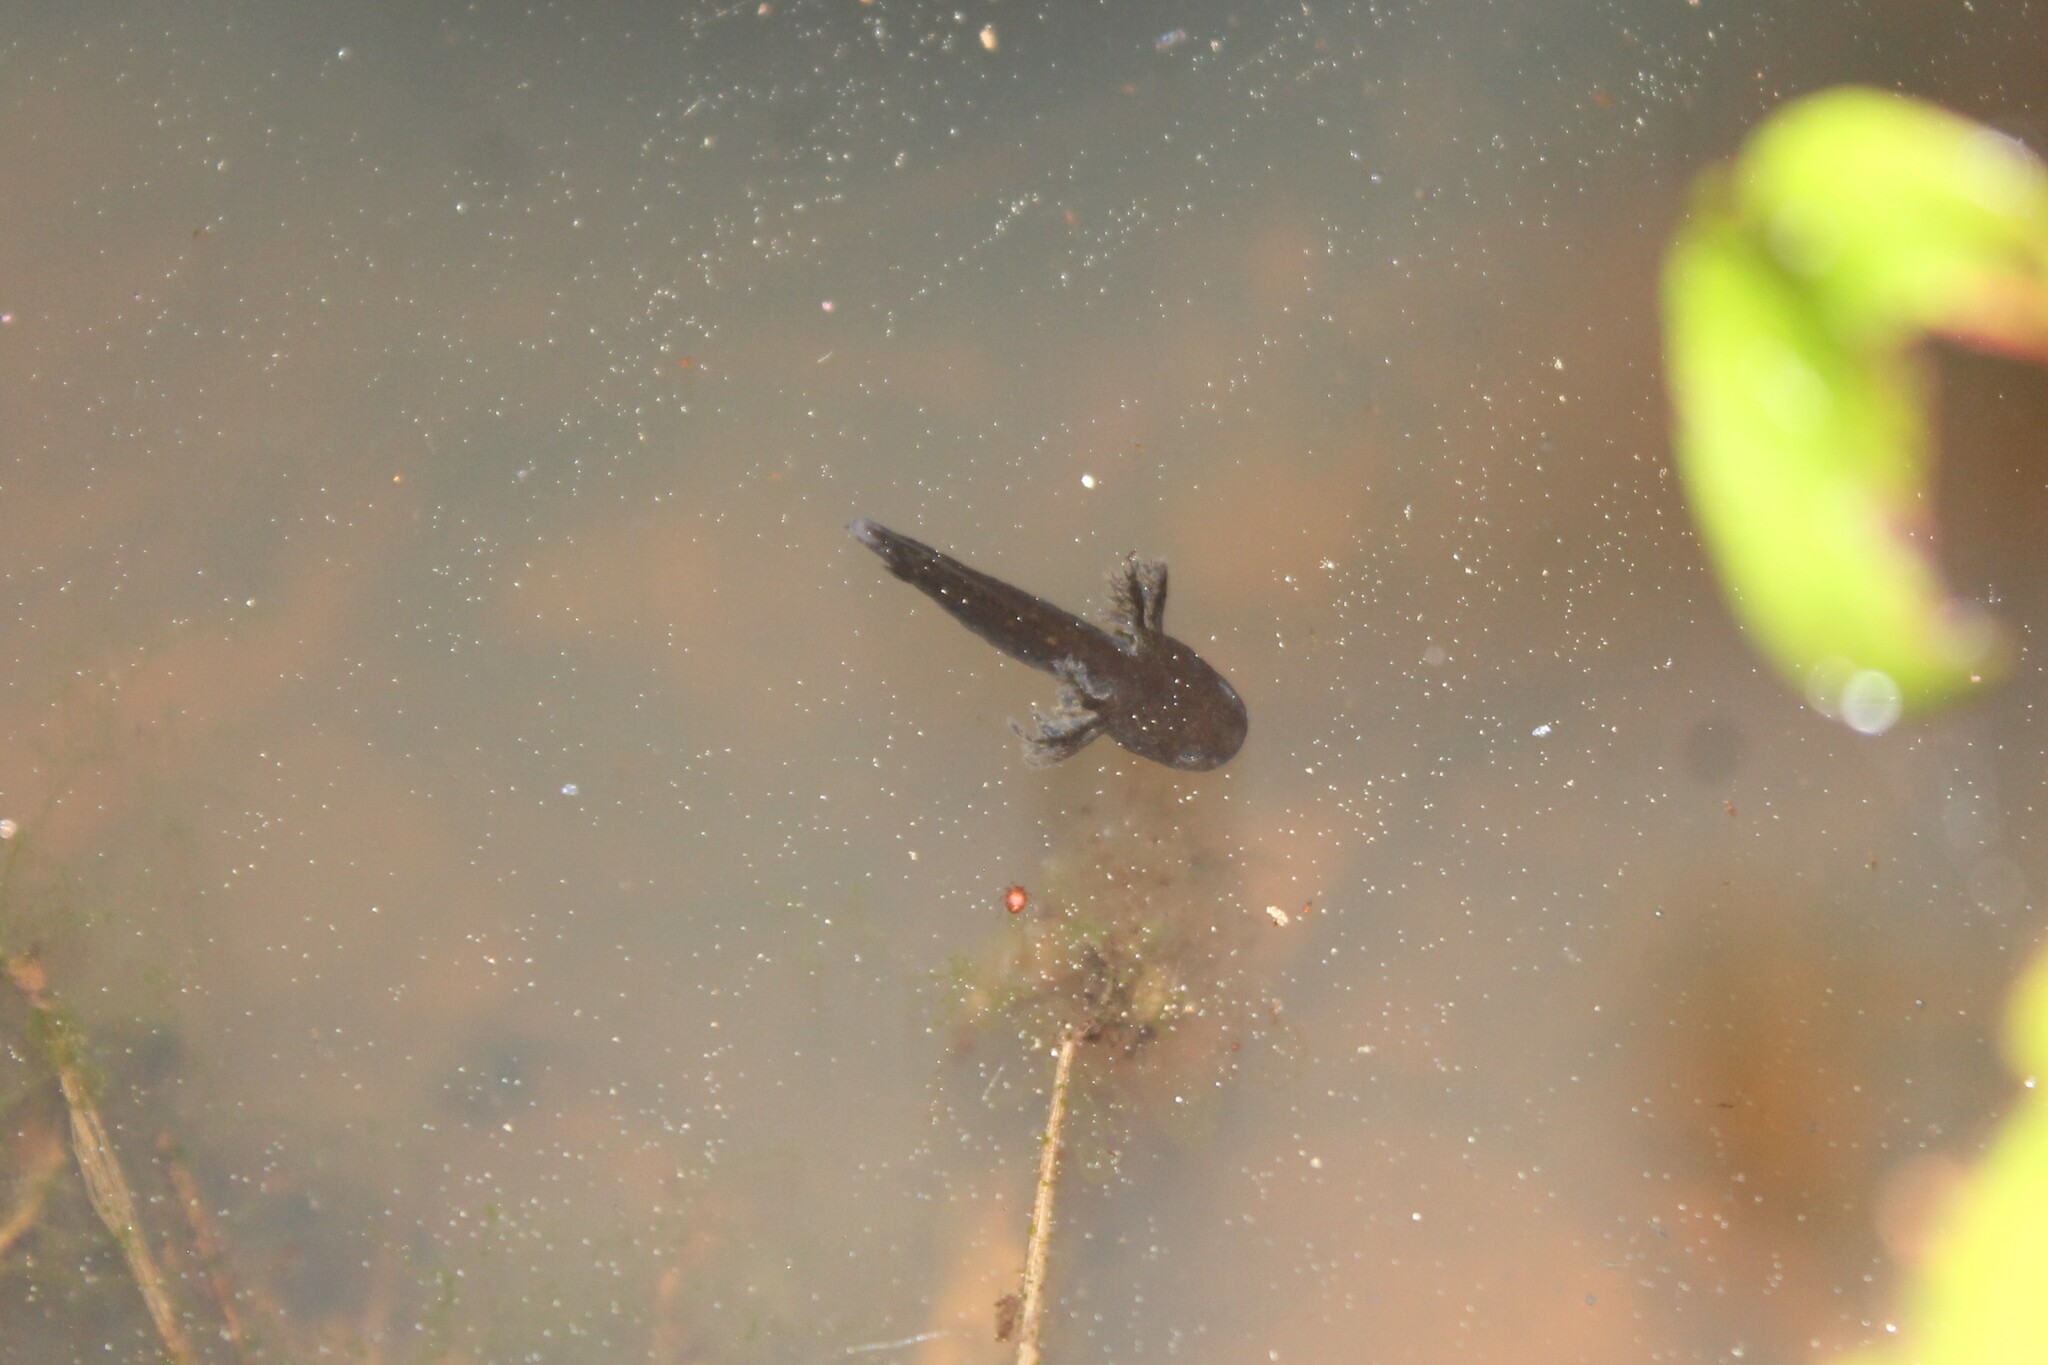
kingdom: Animalia
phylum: Chordata
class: Amphibia
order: Caudata
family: Ambystomatidae
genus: Ambystoma
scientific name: Ambystoma opacum
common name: Marbled salamander
